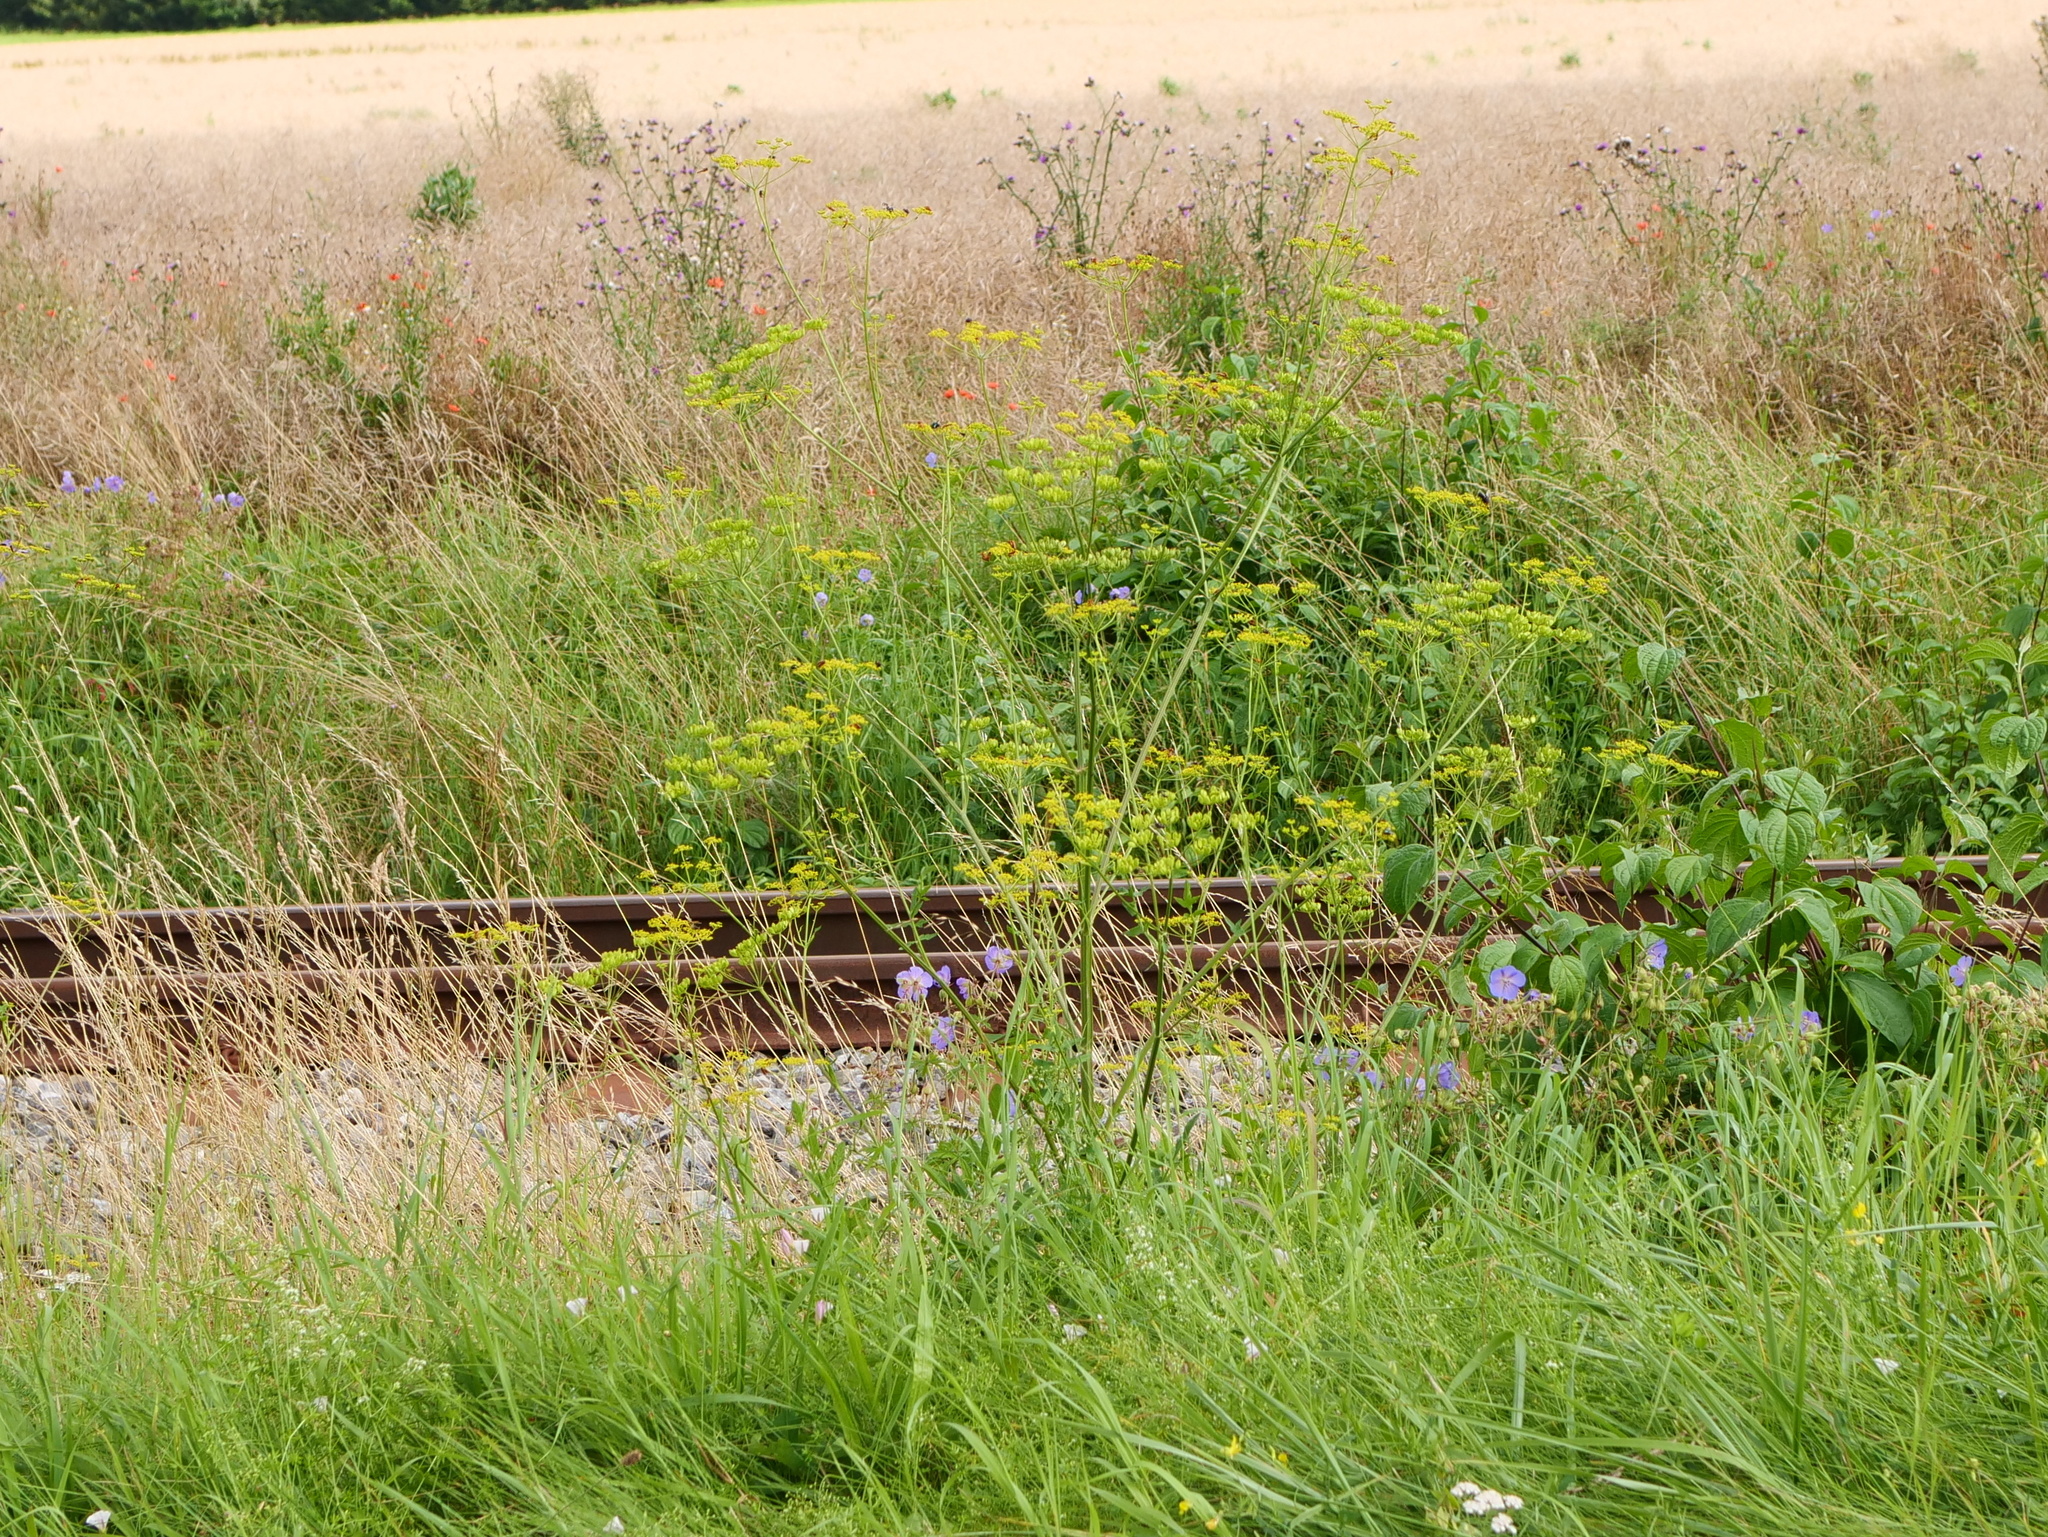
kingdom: Plantae
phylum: Tracheophyta
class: Magnoliopsida
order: Apiales
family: Apiaceae
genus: Pastinaca
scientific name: Pastinaca sativa
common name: Wild parsnip
